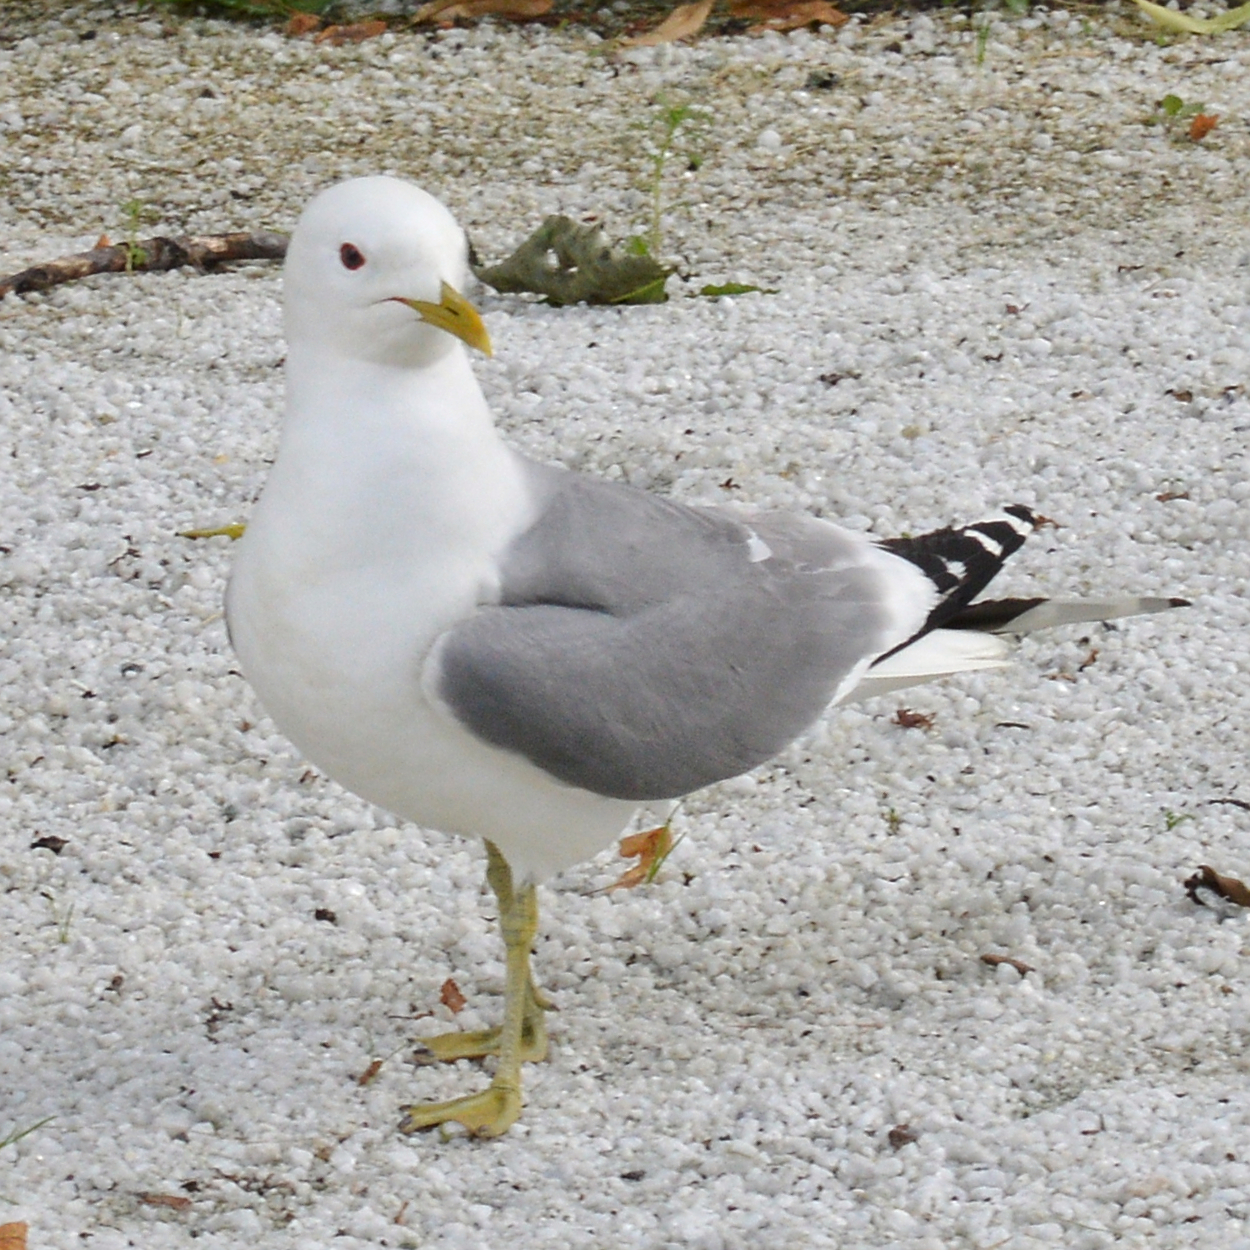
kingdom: Animalia
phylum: Chordata
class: Aves
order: Charadriiformes
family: Laridae
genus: Larus
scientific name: Larus canus
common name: Mew gull
